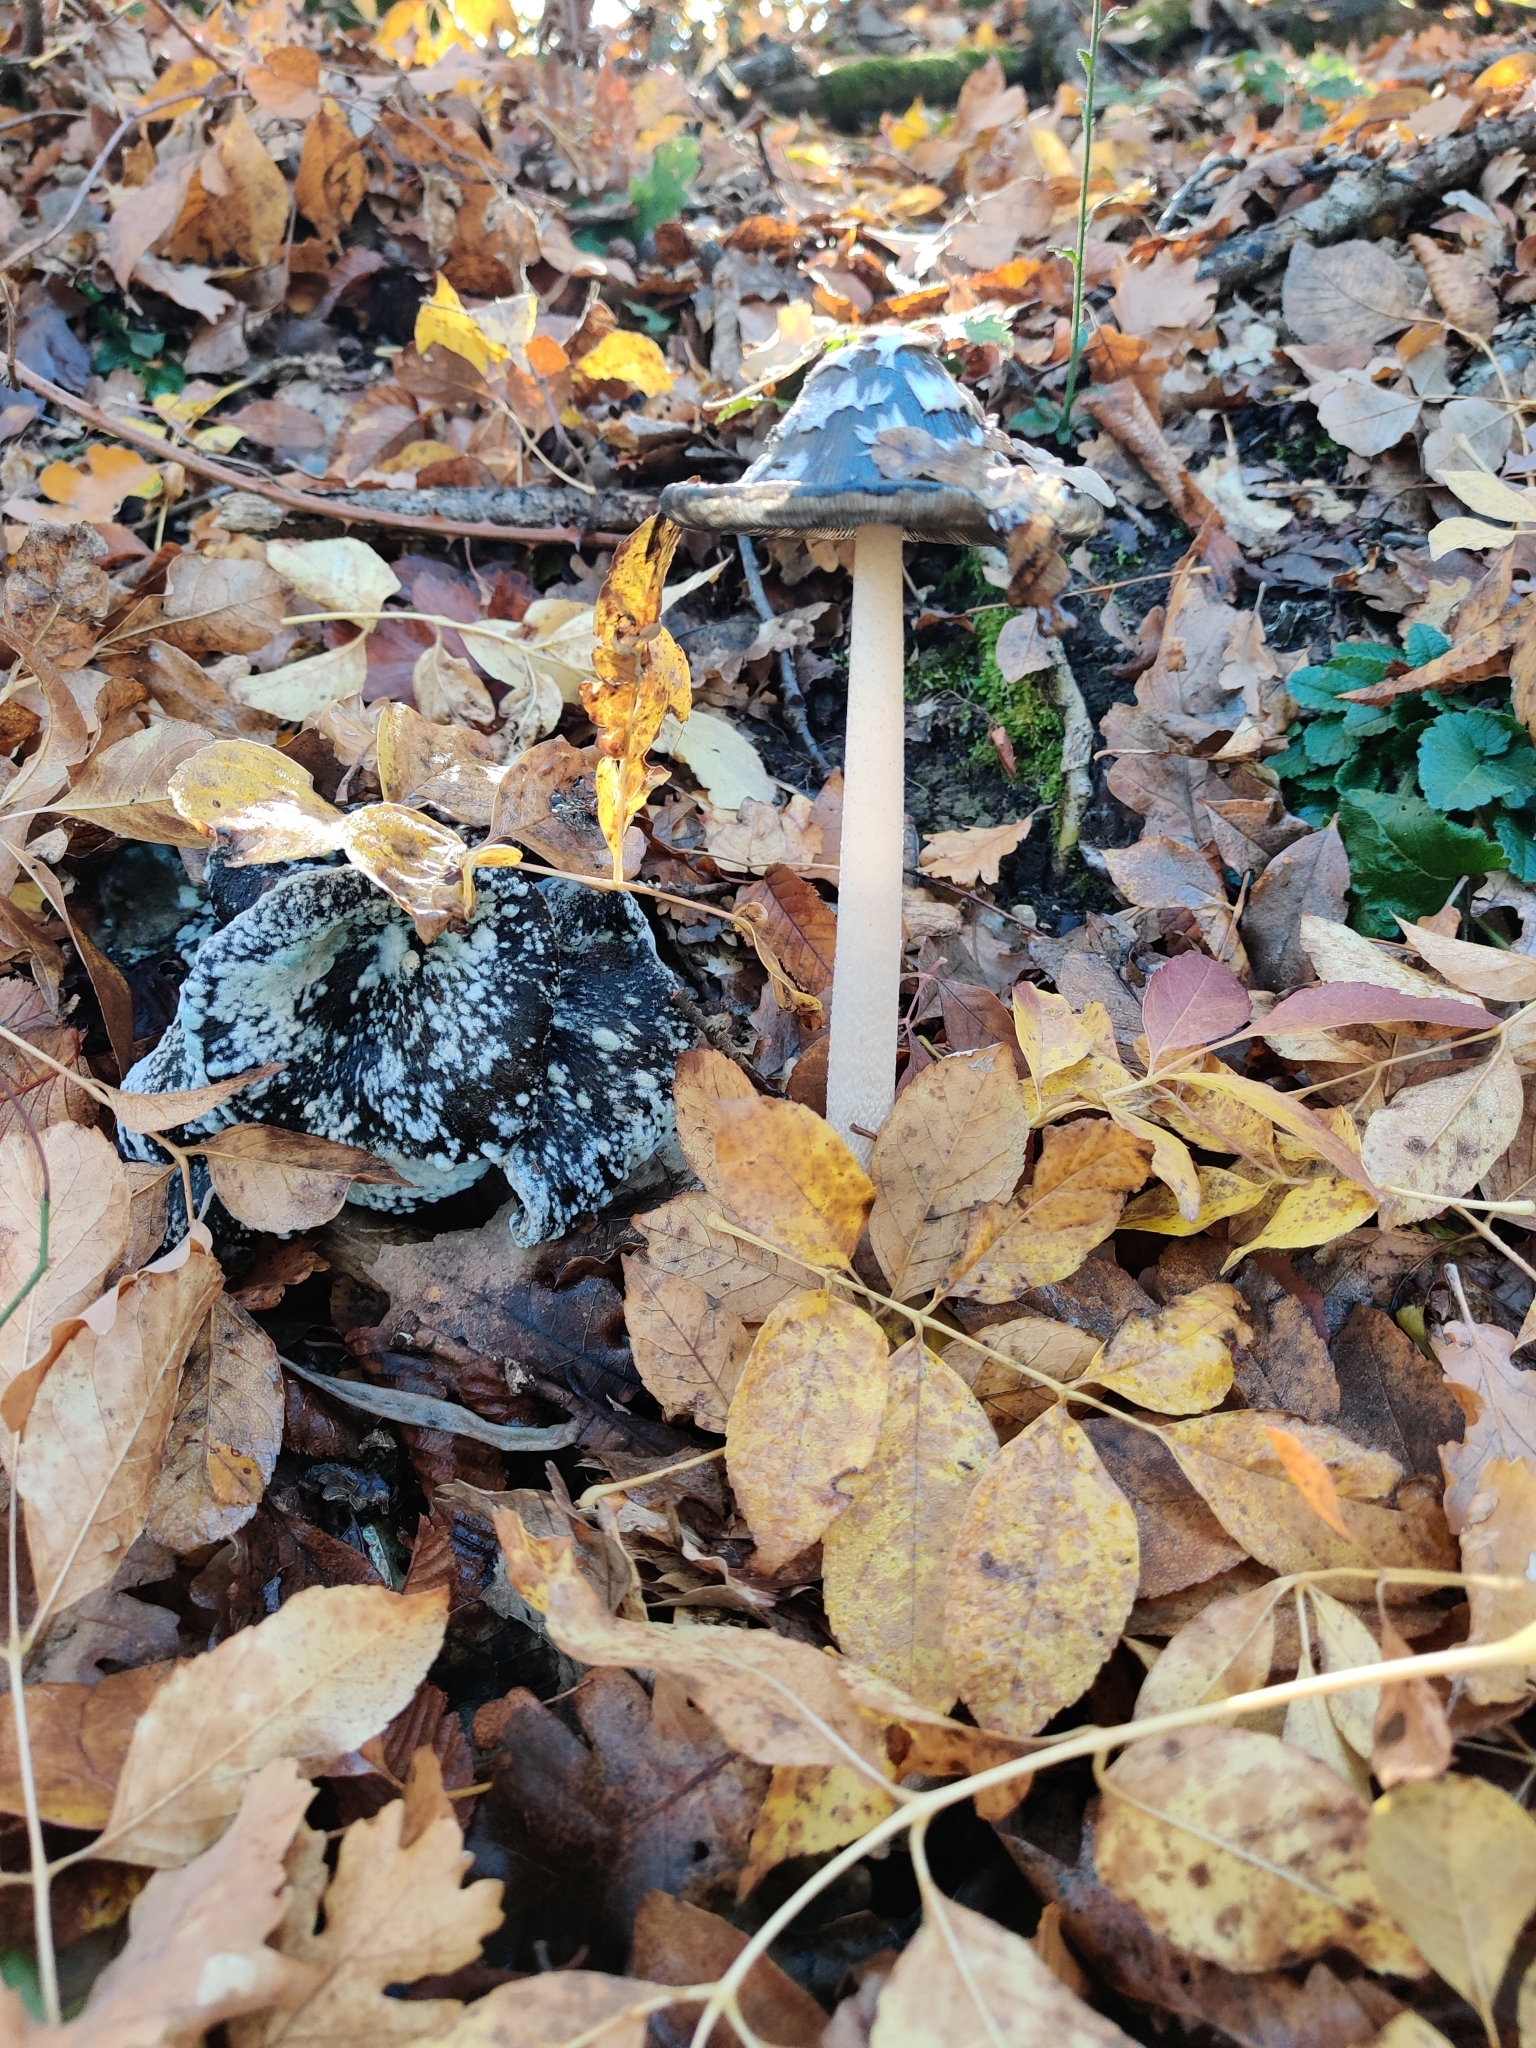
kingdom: Fungi
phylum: Basidiomycota
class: Agaricomycetes
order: Agaricales
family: Psathyrellaceae
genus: Coprinopsis
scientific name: Coprinopsis picacea
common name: Magpie inkcap
